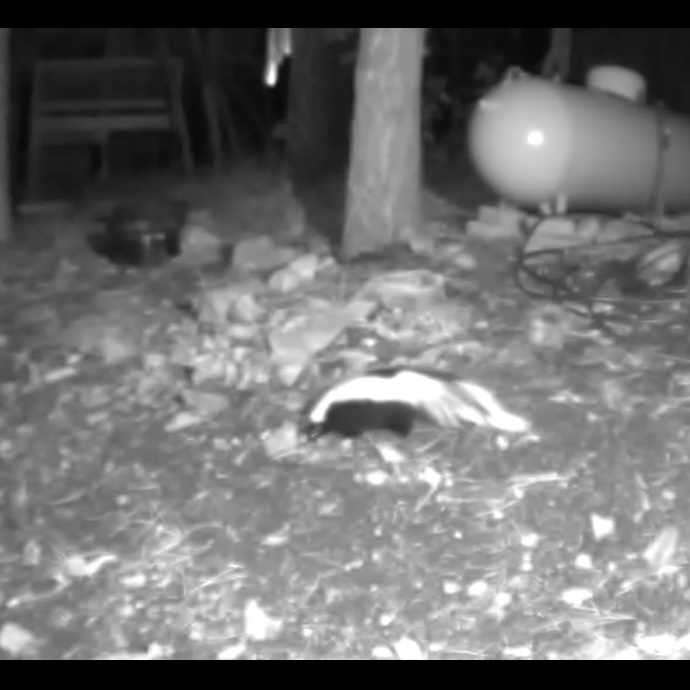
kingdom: Animalia
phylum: Chordata
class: Mammalia
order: Carnivora
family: Mephitidae
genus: Mephitis
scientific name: Mephitis mephitis
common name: Striped skunk
